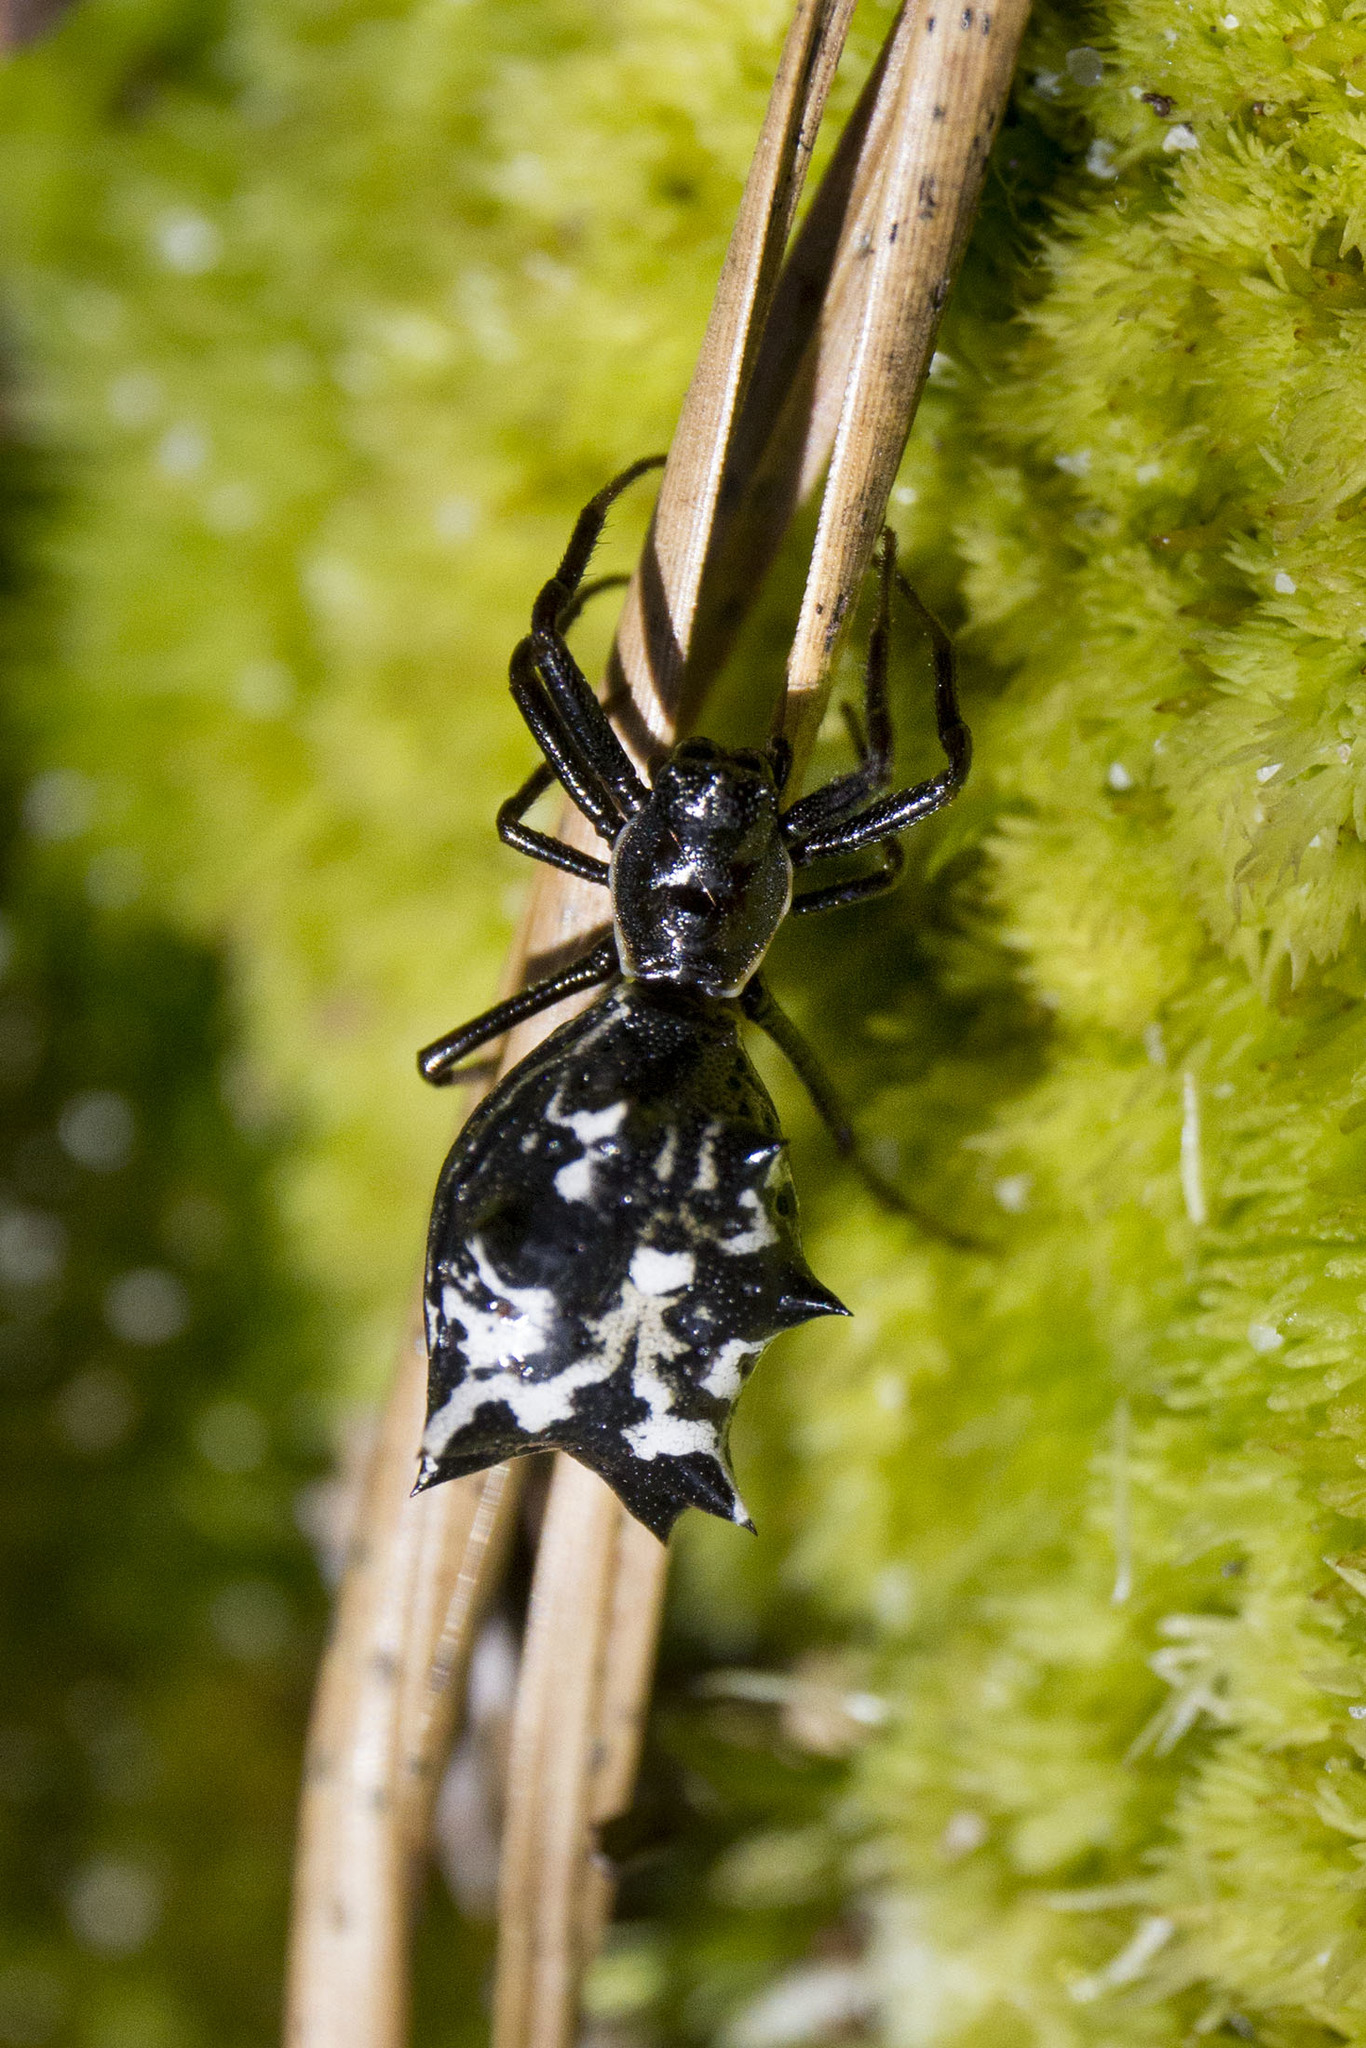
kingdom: Animalia
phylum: Arthropoda
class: Arachnida
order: Araneae
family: Araneidae
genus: Micrathena
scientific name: Micrathena gracilis
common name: Orb weavers
